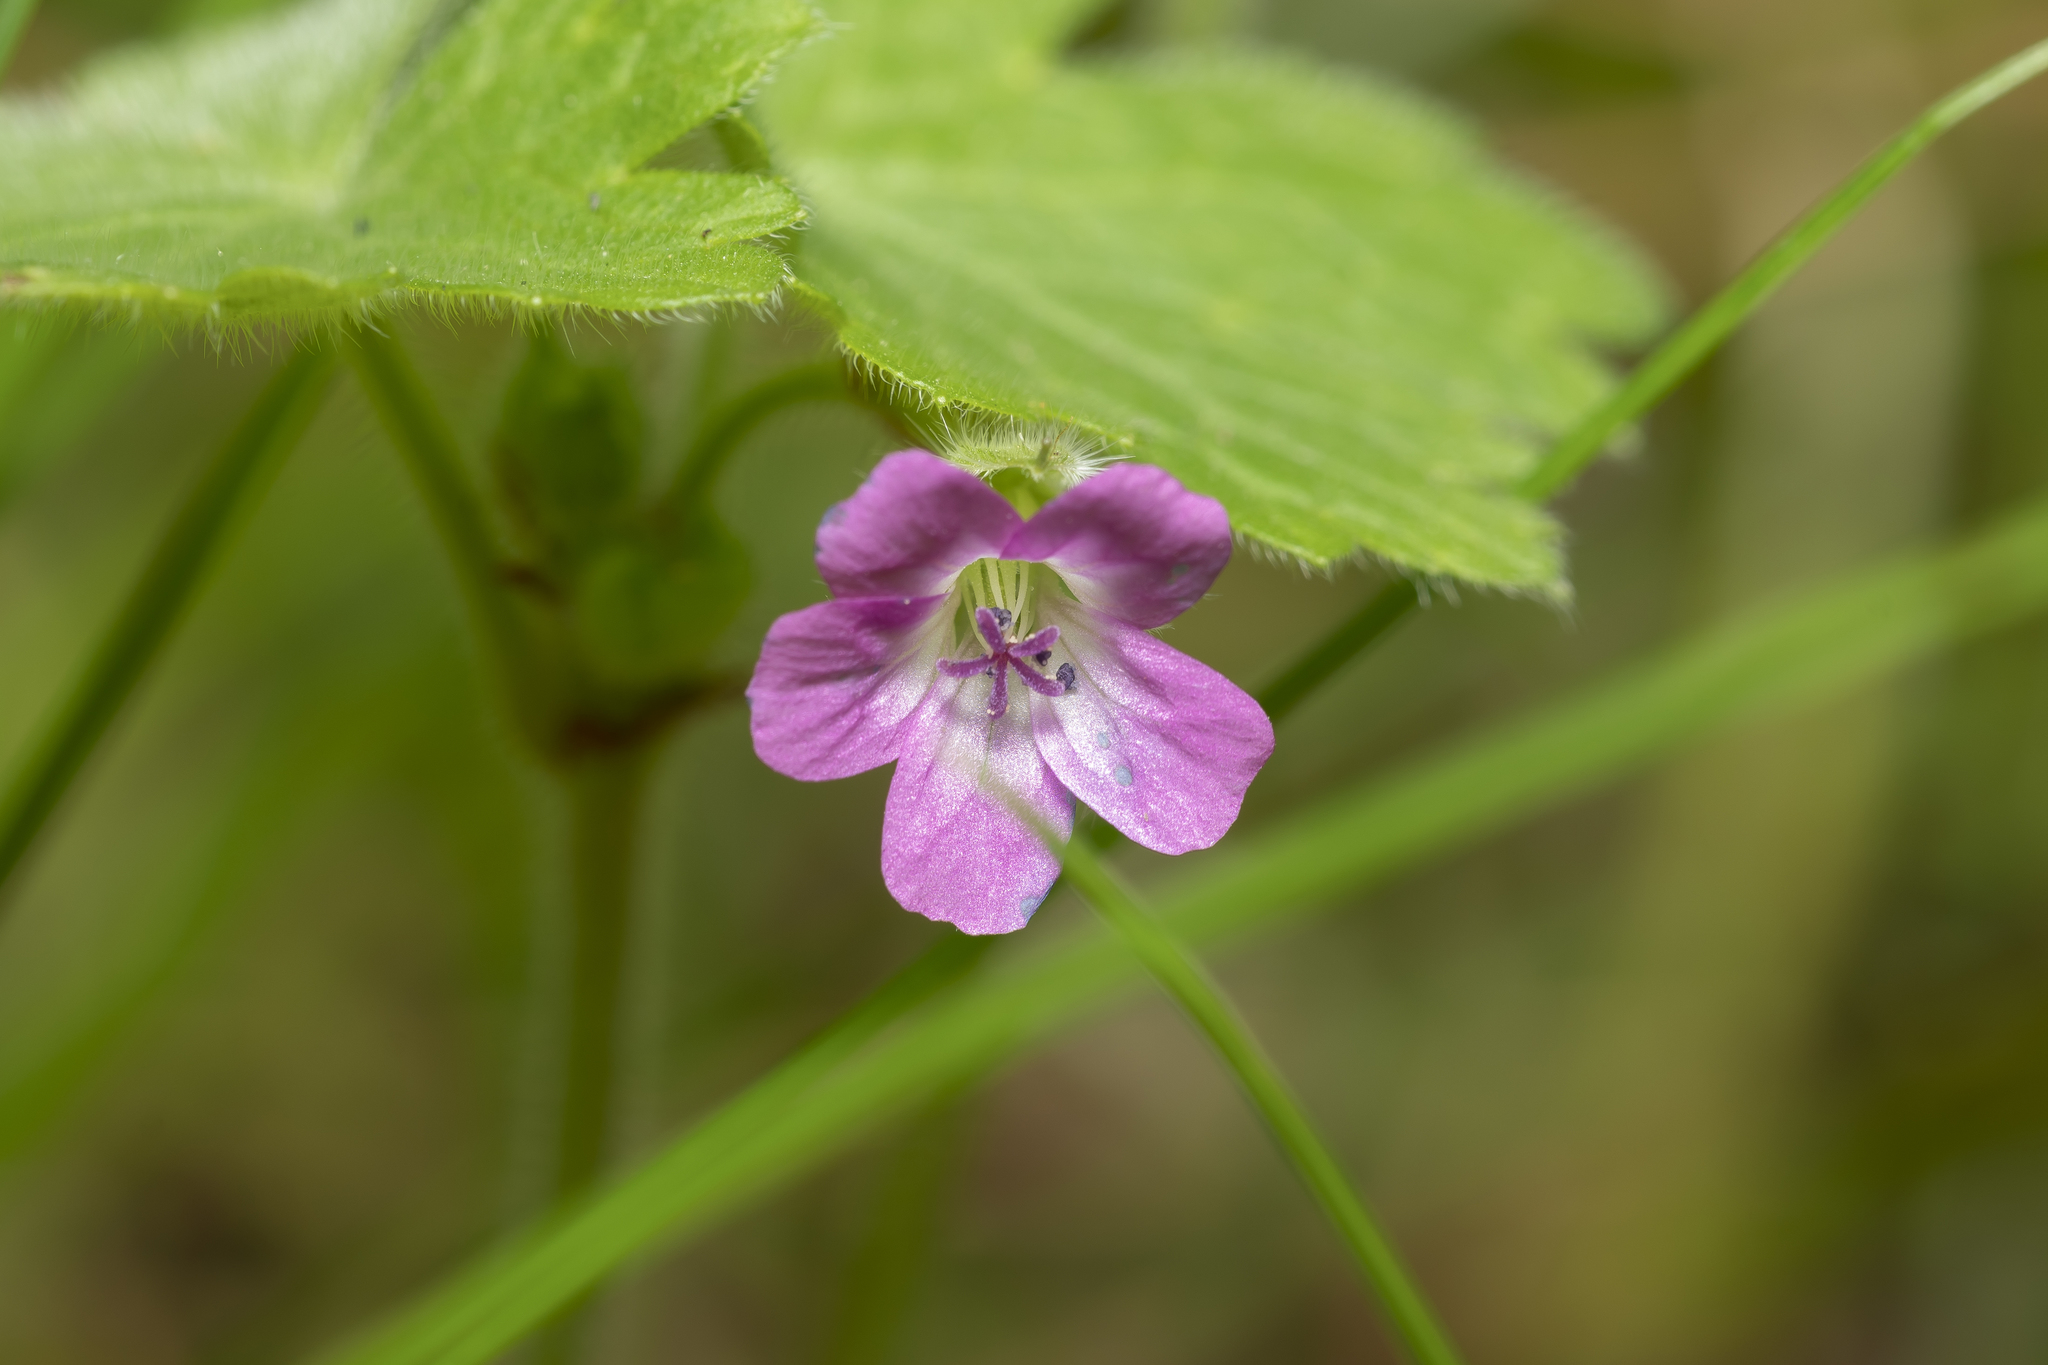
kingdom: Plantae
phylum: Tracheophyta
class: Magnoliopsida
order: Geraniales
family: Geraniaceae
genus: Geranium
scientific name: Geranium rotundifolium
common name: Round-leaved crane's-bill
